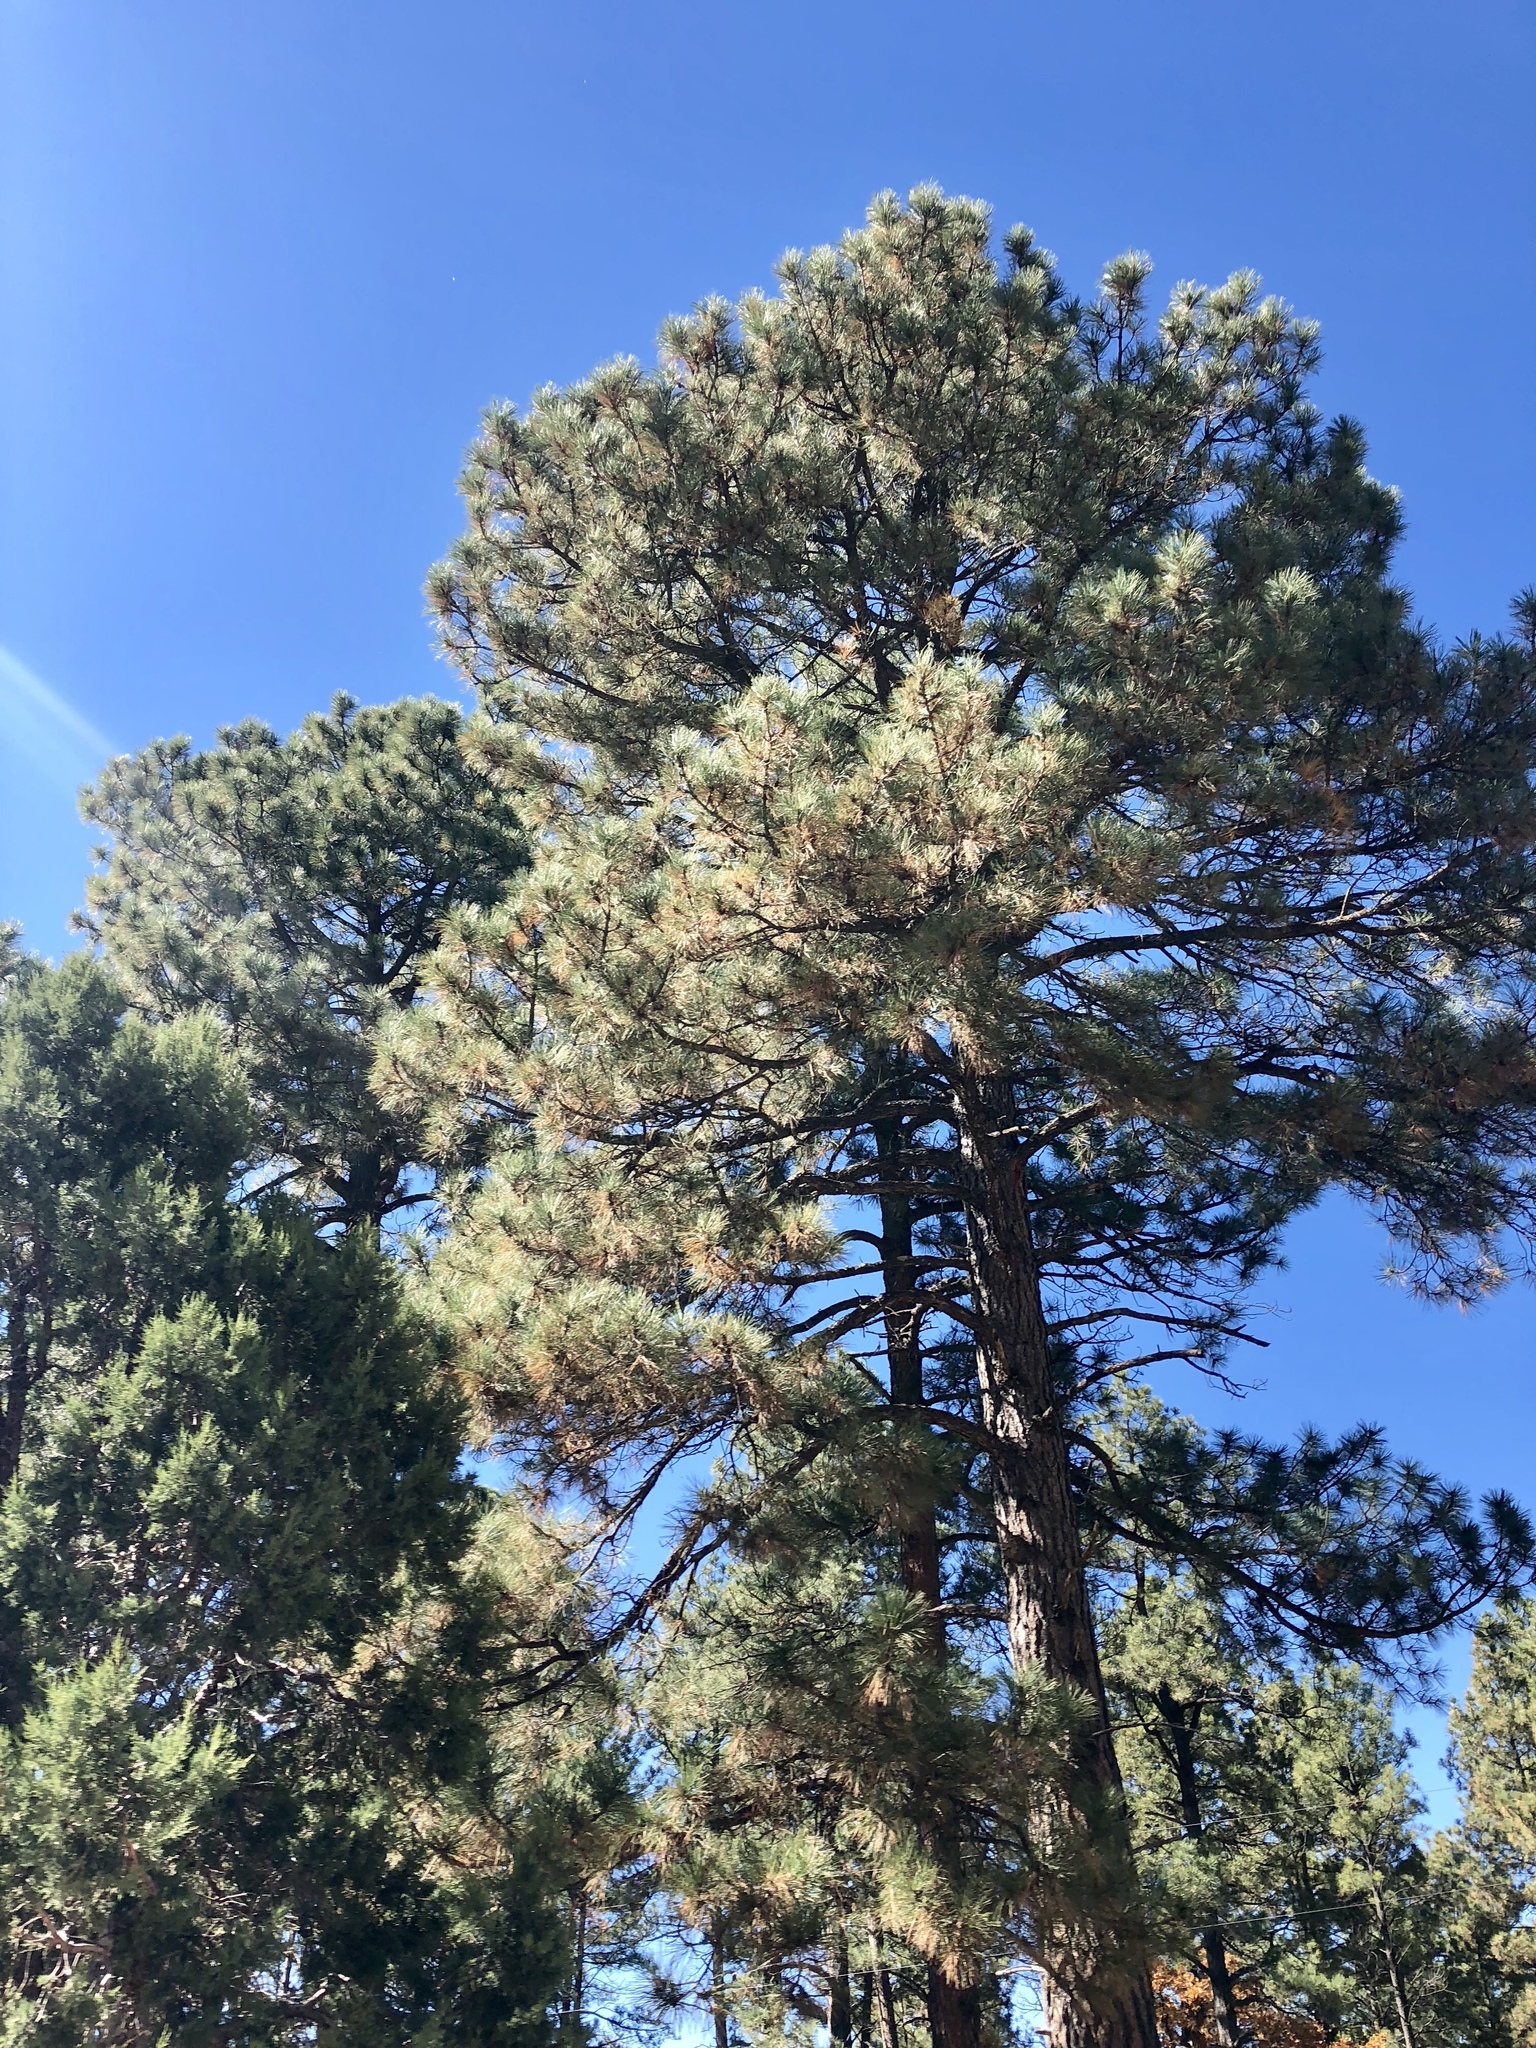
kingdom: Plantae
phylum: Tracheophyta
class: Pinopsida
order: Pinales
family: Pinaceae
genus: Pinus
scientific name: Pinus ponderosa
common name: Western yellow-pine
